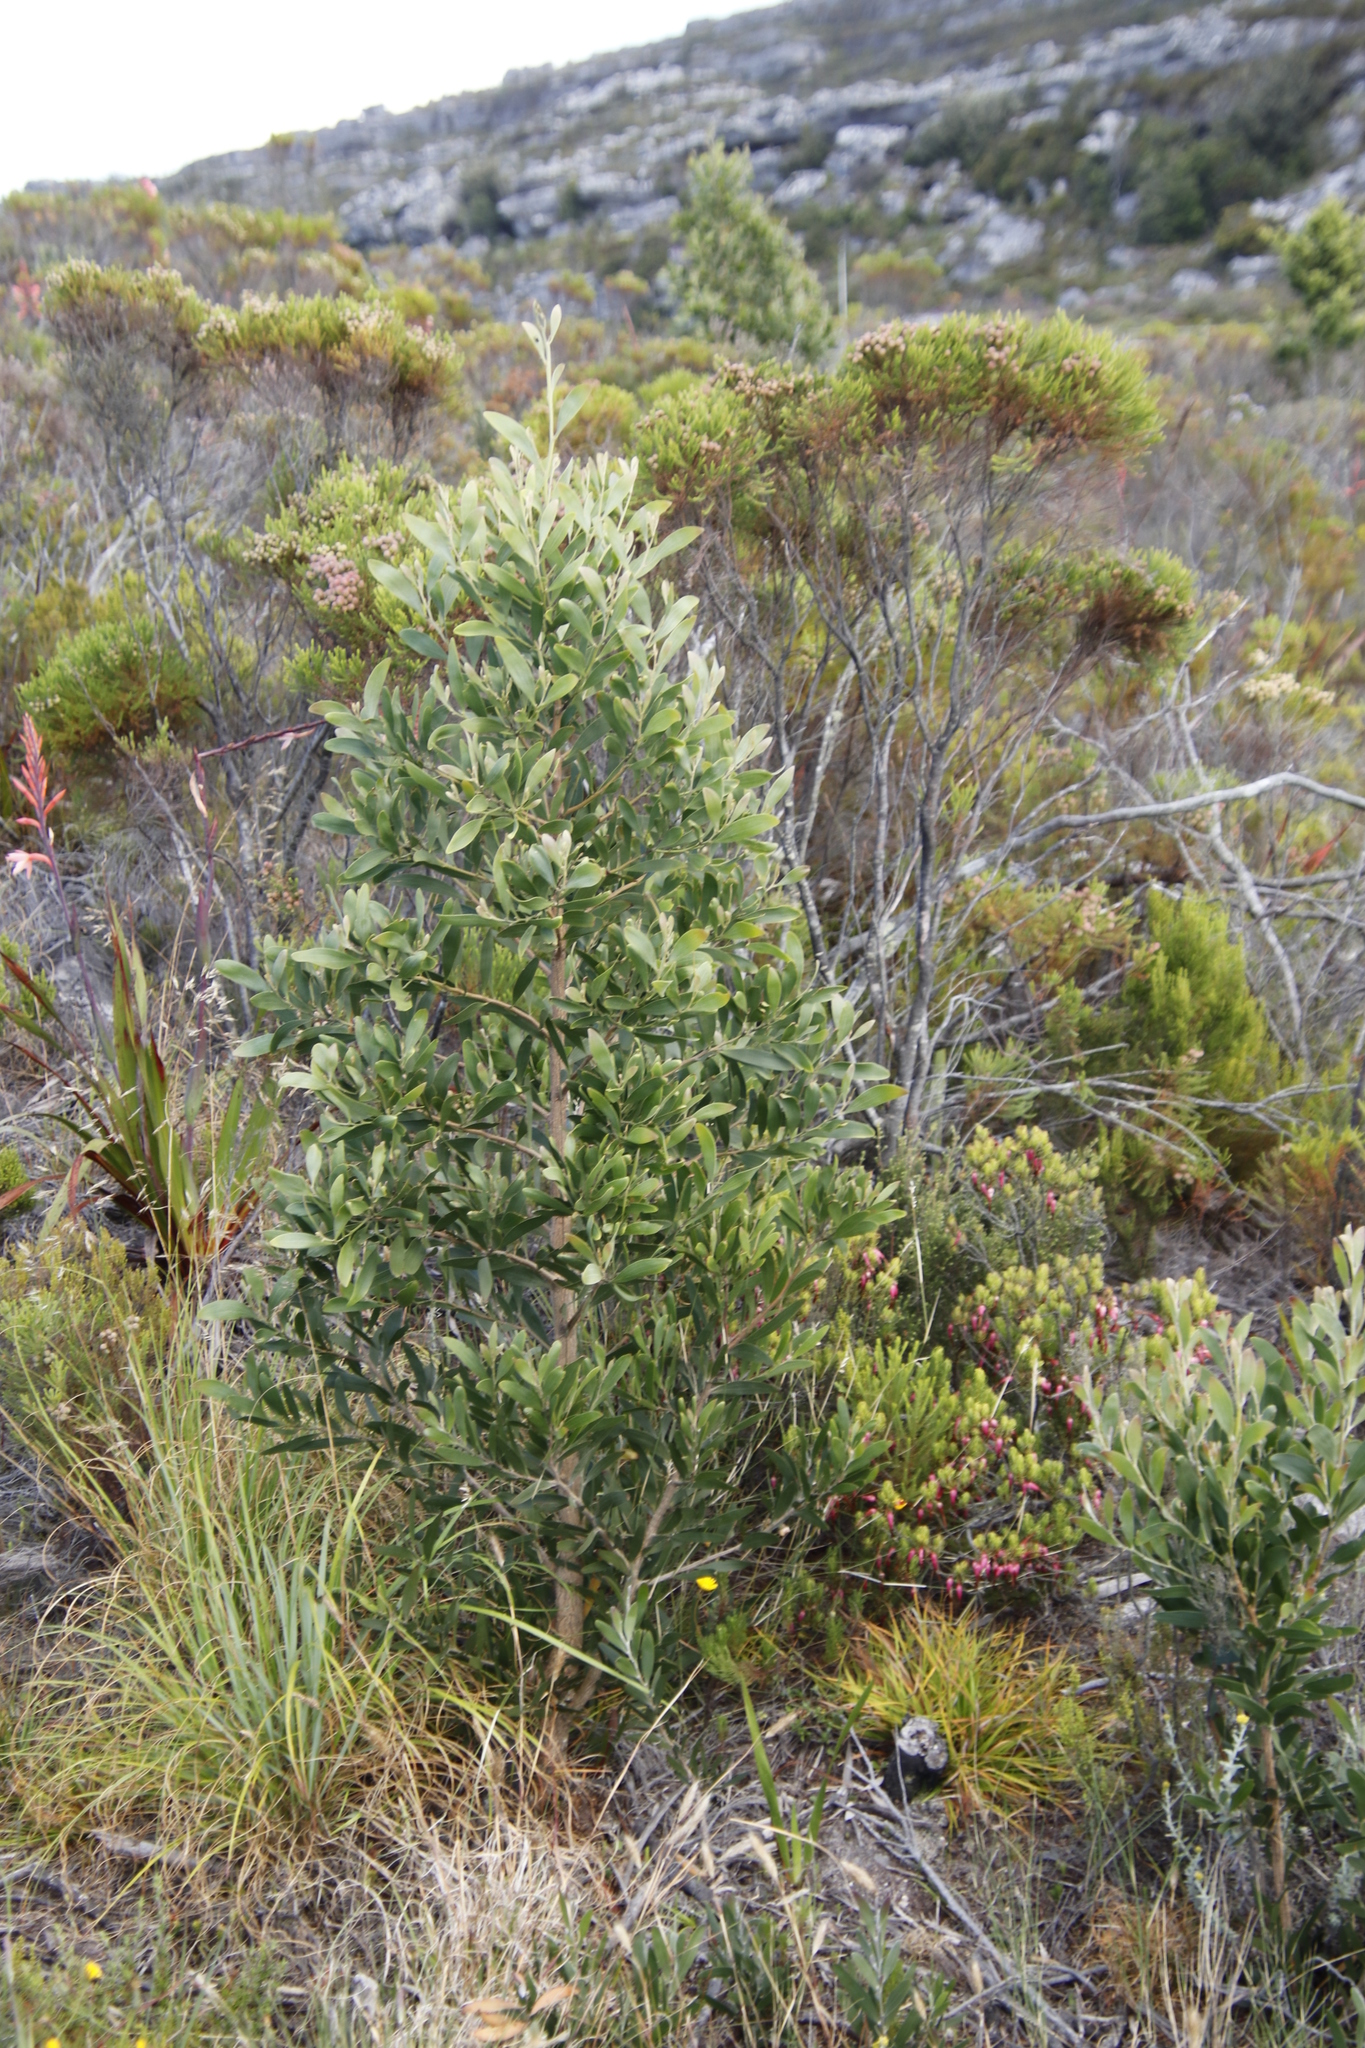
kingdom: Plantae
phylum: Tracheophyta
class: Magnoliopsida
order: Fabales
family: Fabaceae
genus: Acacia
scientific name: Acacia melanoxylon
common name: Blackwood
